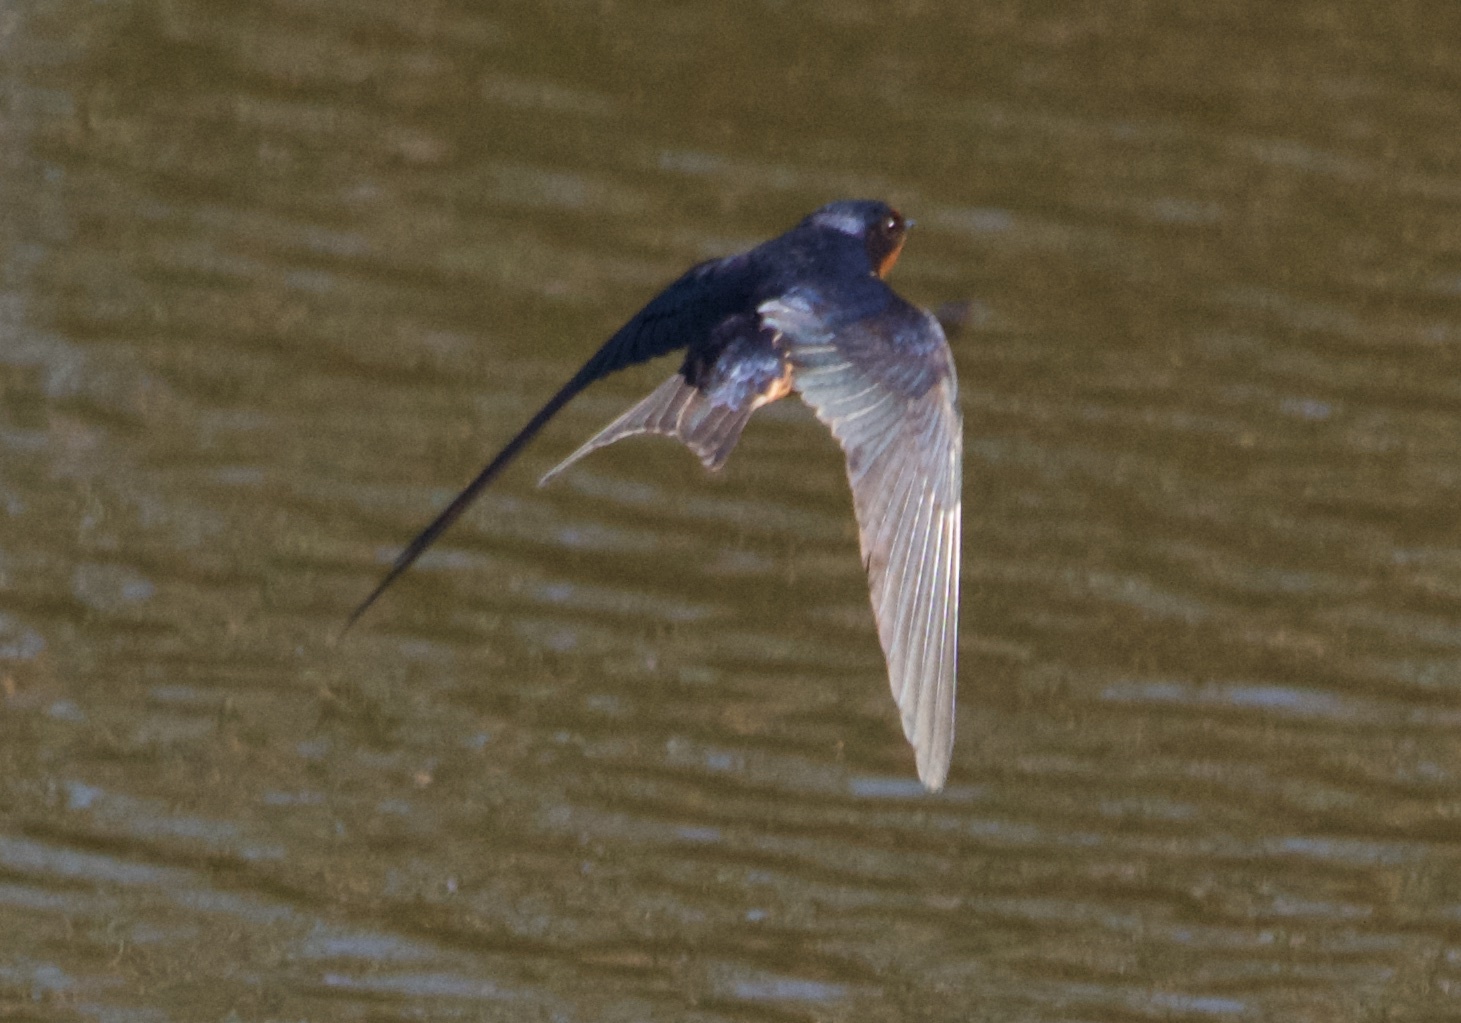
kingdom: Animalia
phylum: Chordata
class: Aves
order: Passeriformes
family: Hirundinidae
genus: Hirundo
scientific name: Hirundo rustica
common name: Barn swallow
